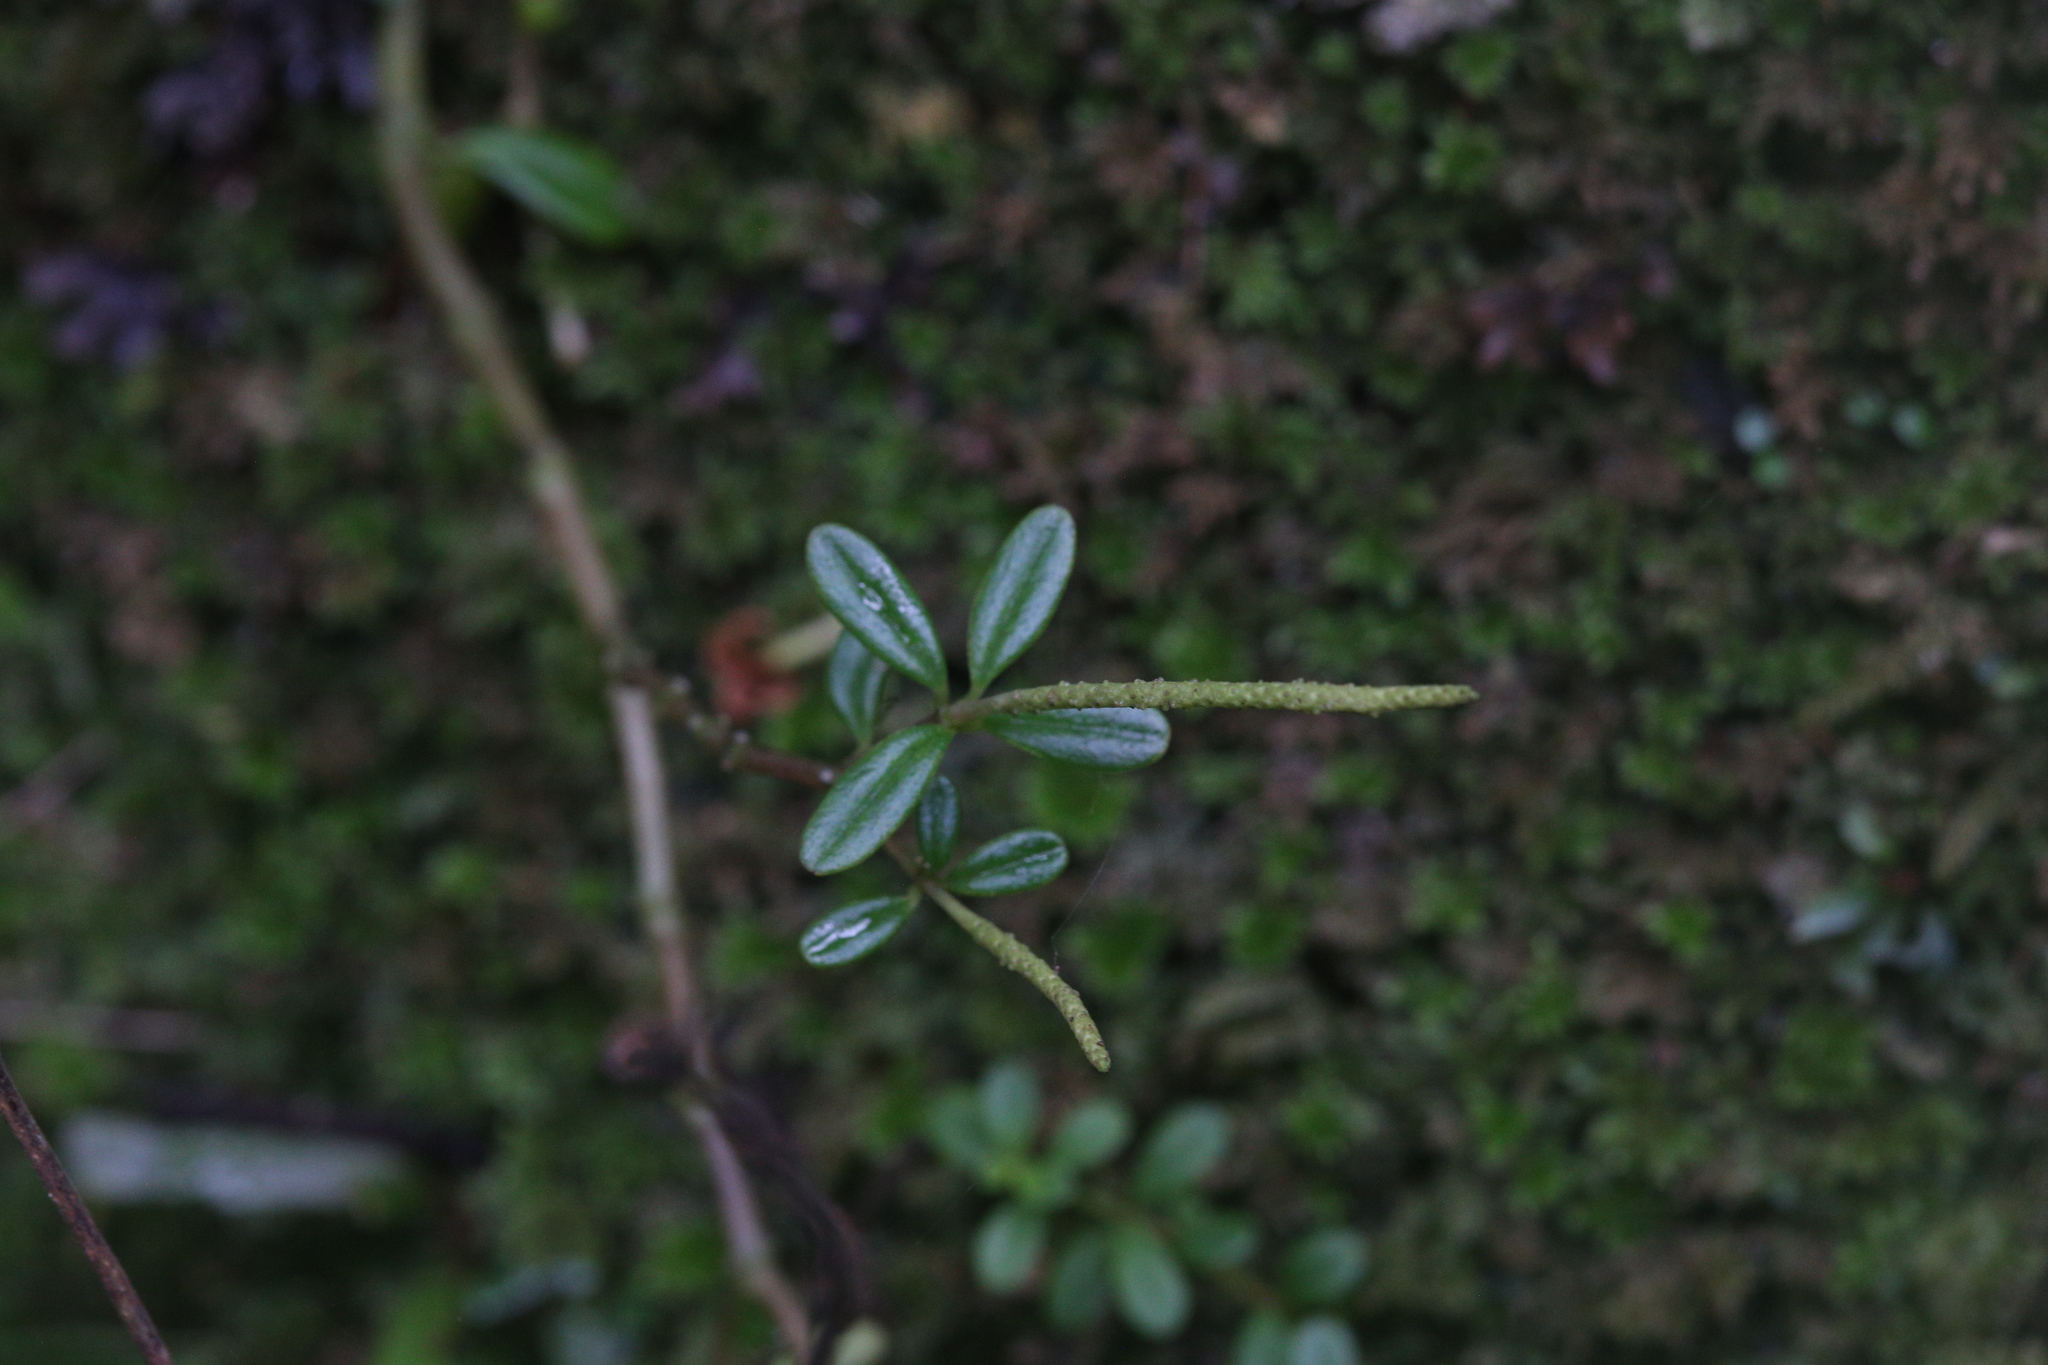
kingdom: Plantae
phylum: Tracheophyta
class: Magnoliopsida
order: Piperales
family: Piperaceae
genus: Peperomia
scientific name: Peperomia enervis
